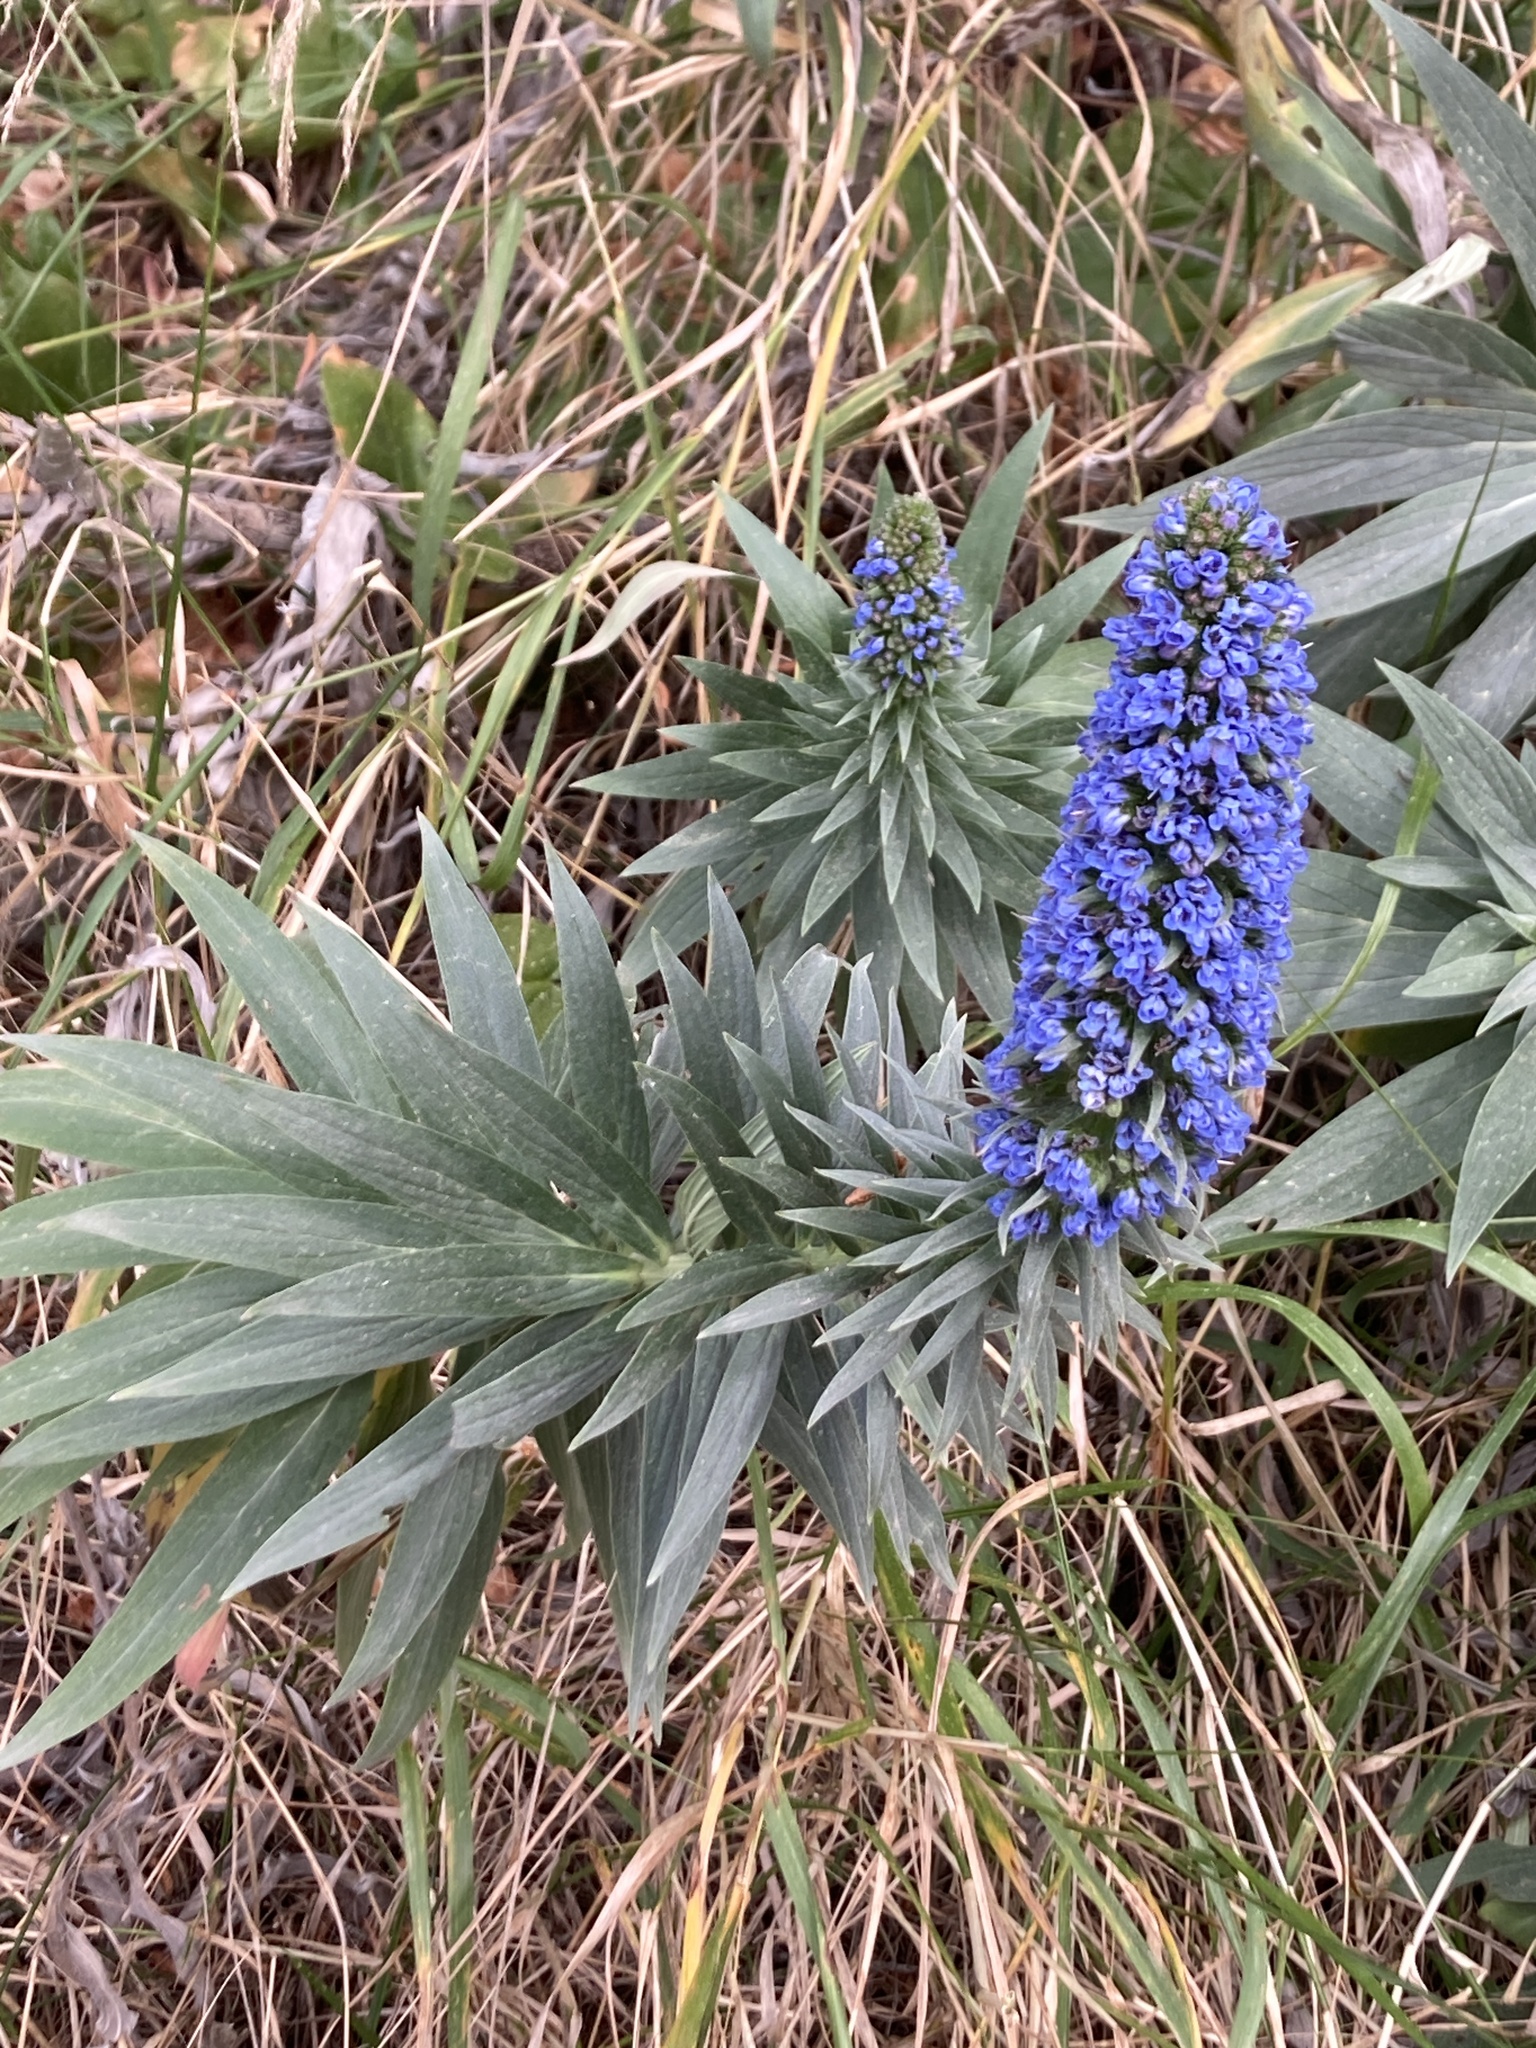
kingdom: Plantae
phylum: Tracheophyta
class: Magnoliopsida
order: Boraginales
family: Boraginaceae
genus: Echium
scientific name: Echium candicans
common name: Pride of madeira
